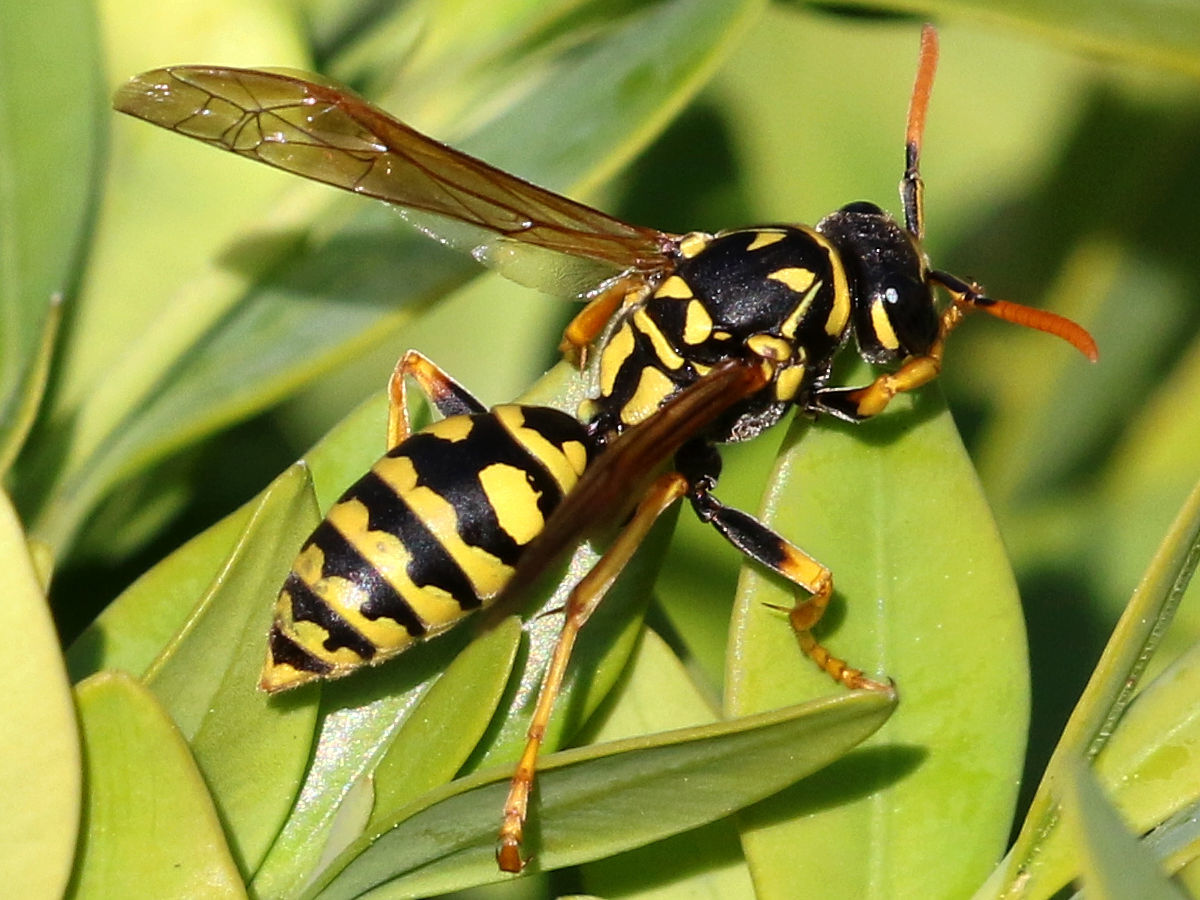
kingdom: Animalia
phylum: Arthropoda
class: Insecta
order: Hymenoptera
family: Eumenidae
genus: Polistes
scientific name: Polistes dominula
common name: Paper wasp
